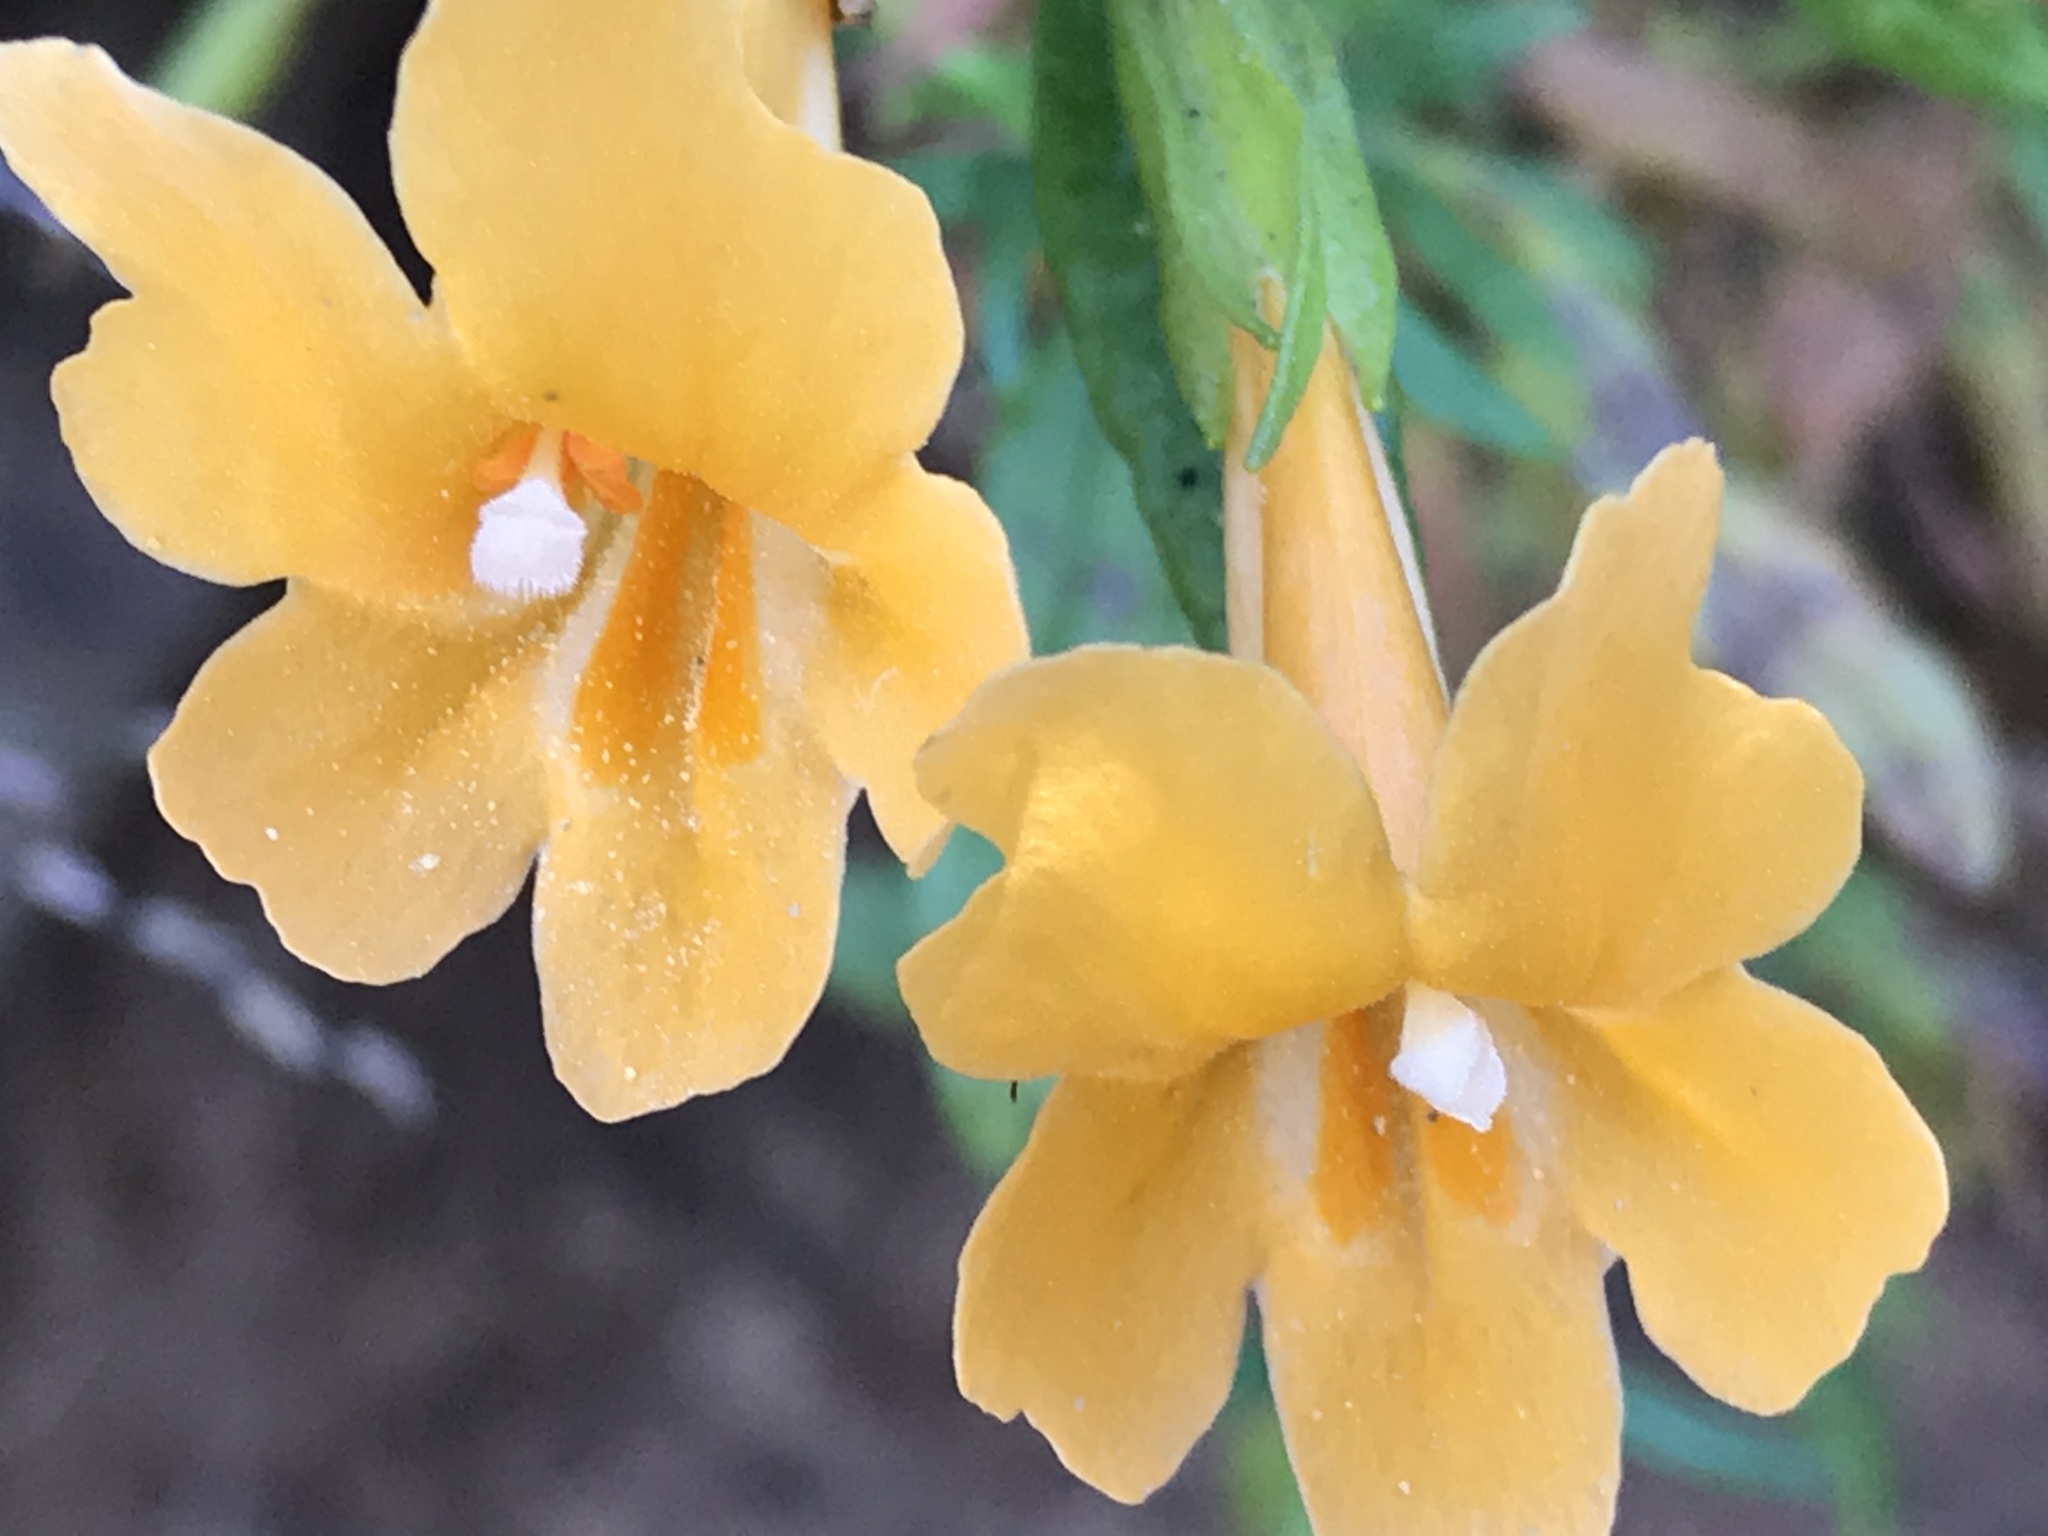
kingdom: Plantae
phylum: Tracheophyta
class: Magnoliopsida
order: Lamiales
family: Phrymaceae
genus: Diplacus
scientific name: Diplacus aurantiacus
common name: Bush monkey-flower
